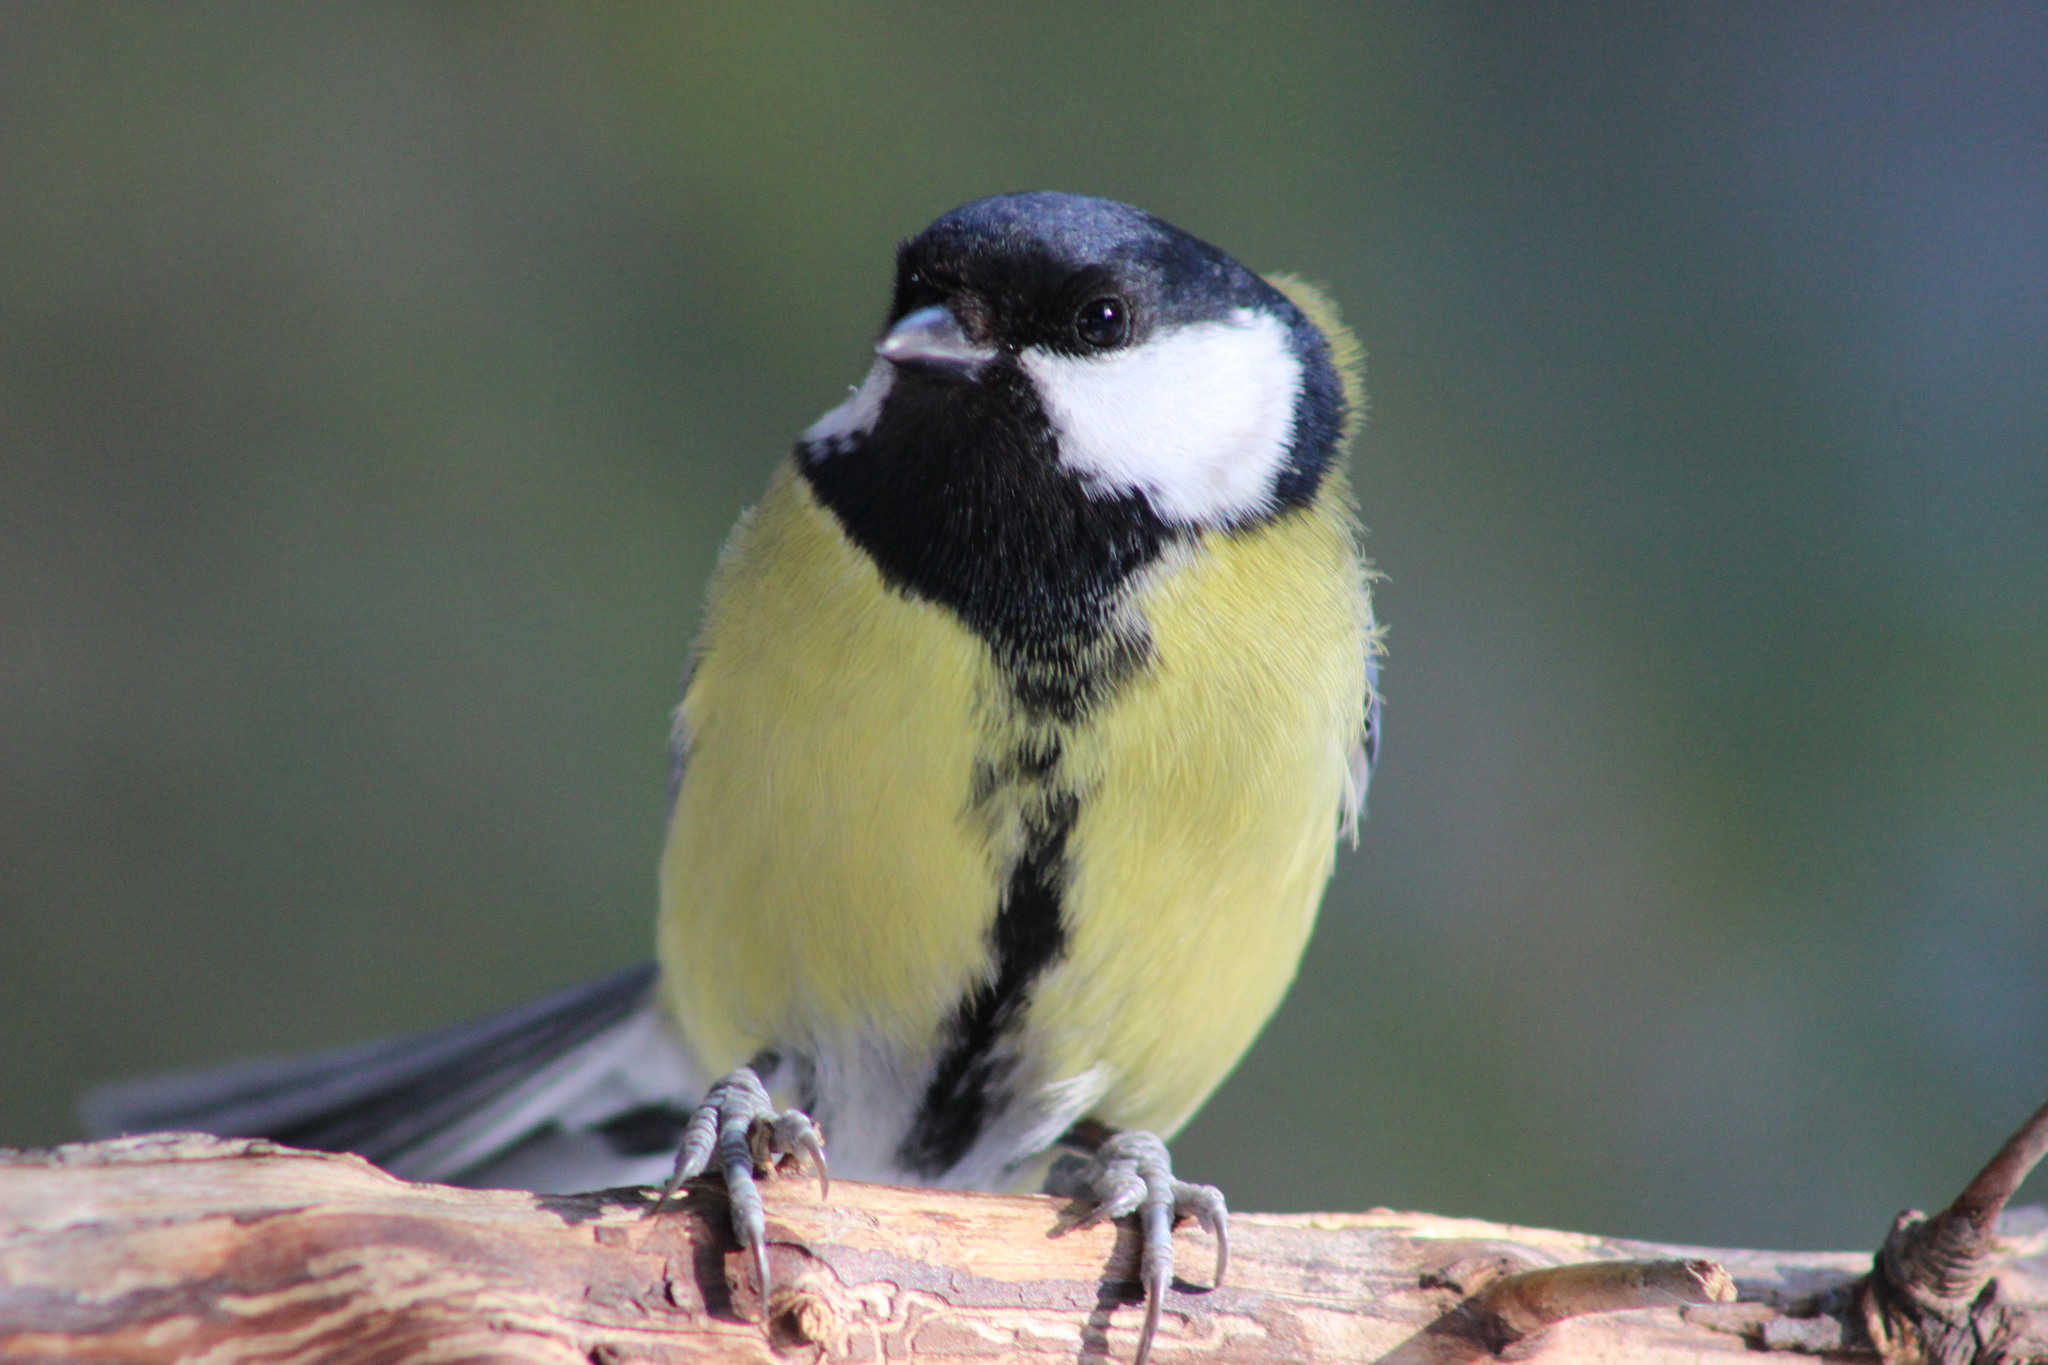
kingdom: Animalia
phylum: Chordata
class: Aves
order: Passeriformes
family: Paridae
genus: Parus
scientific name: Parus major
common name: Great tit
